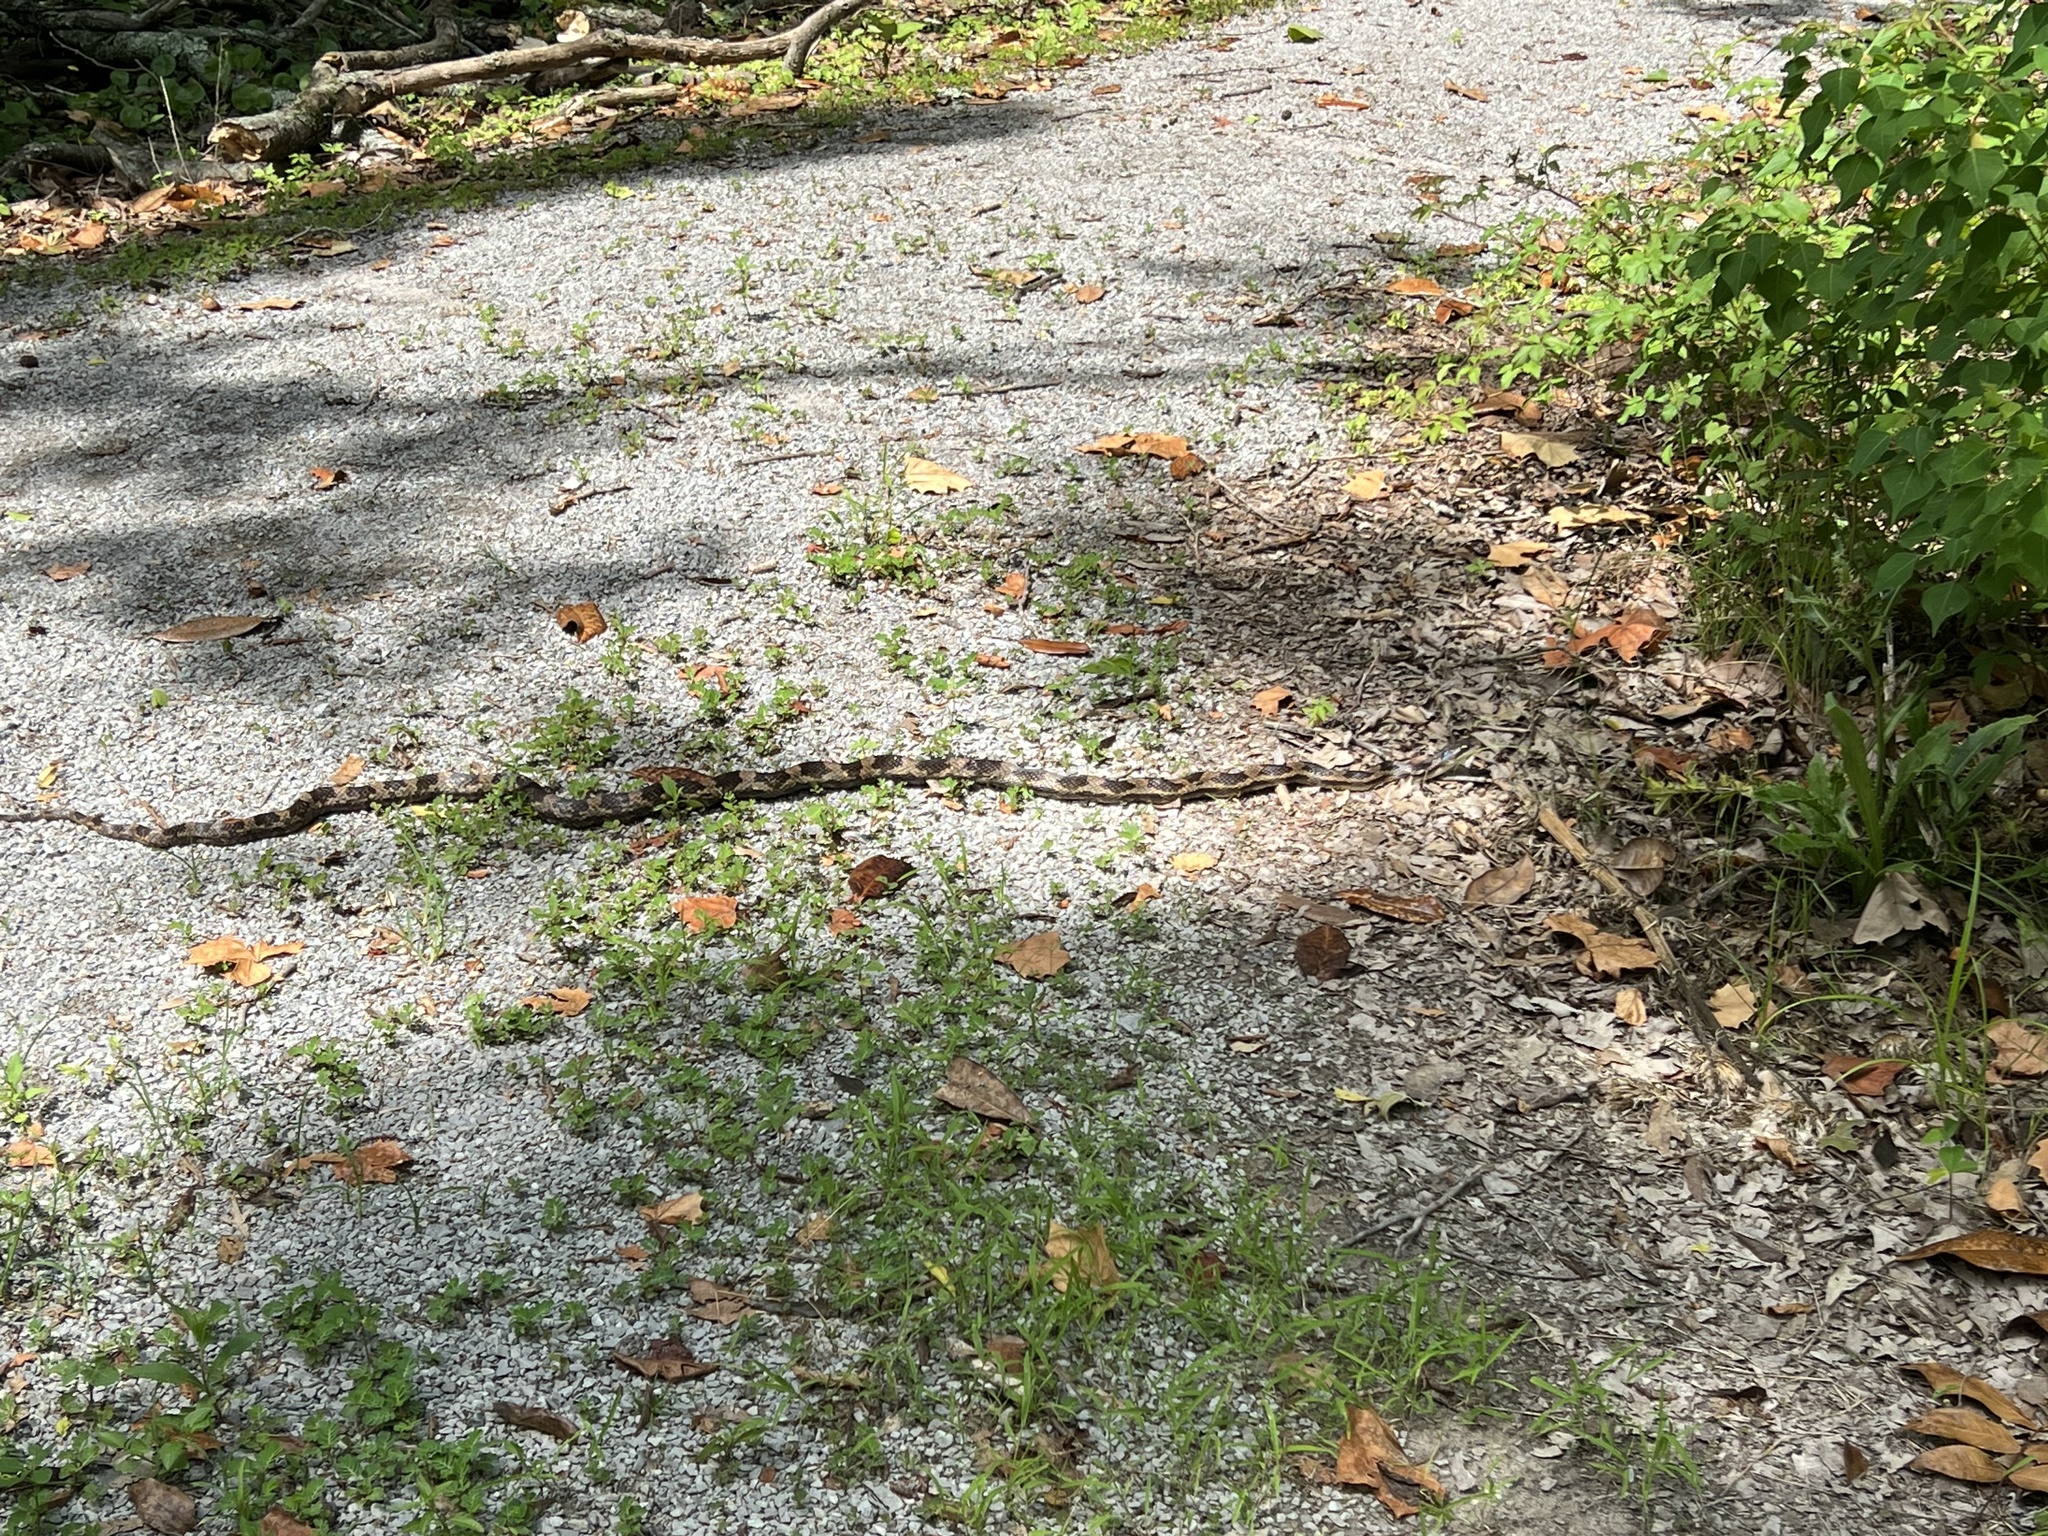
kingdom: Animalia
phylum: Chordata
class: Squamata
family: Colubridae
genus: Pantherophis
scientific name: Pantherophis spiloides
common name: Gray rat snake
